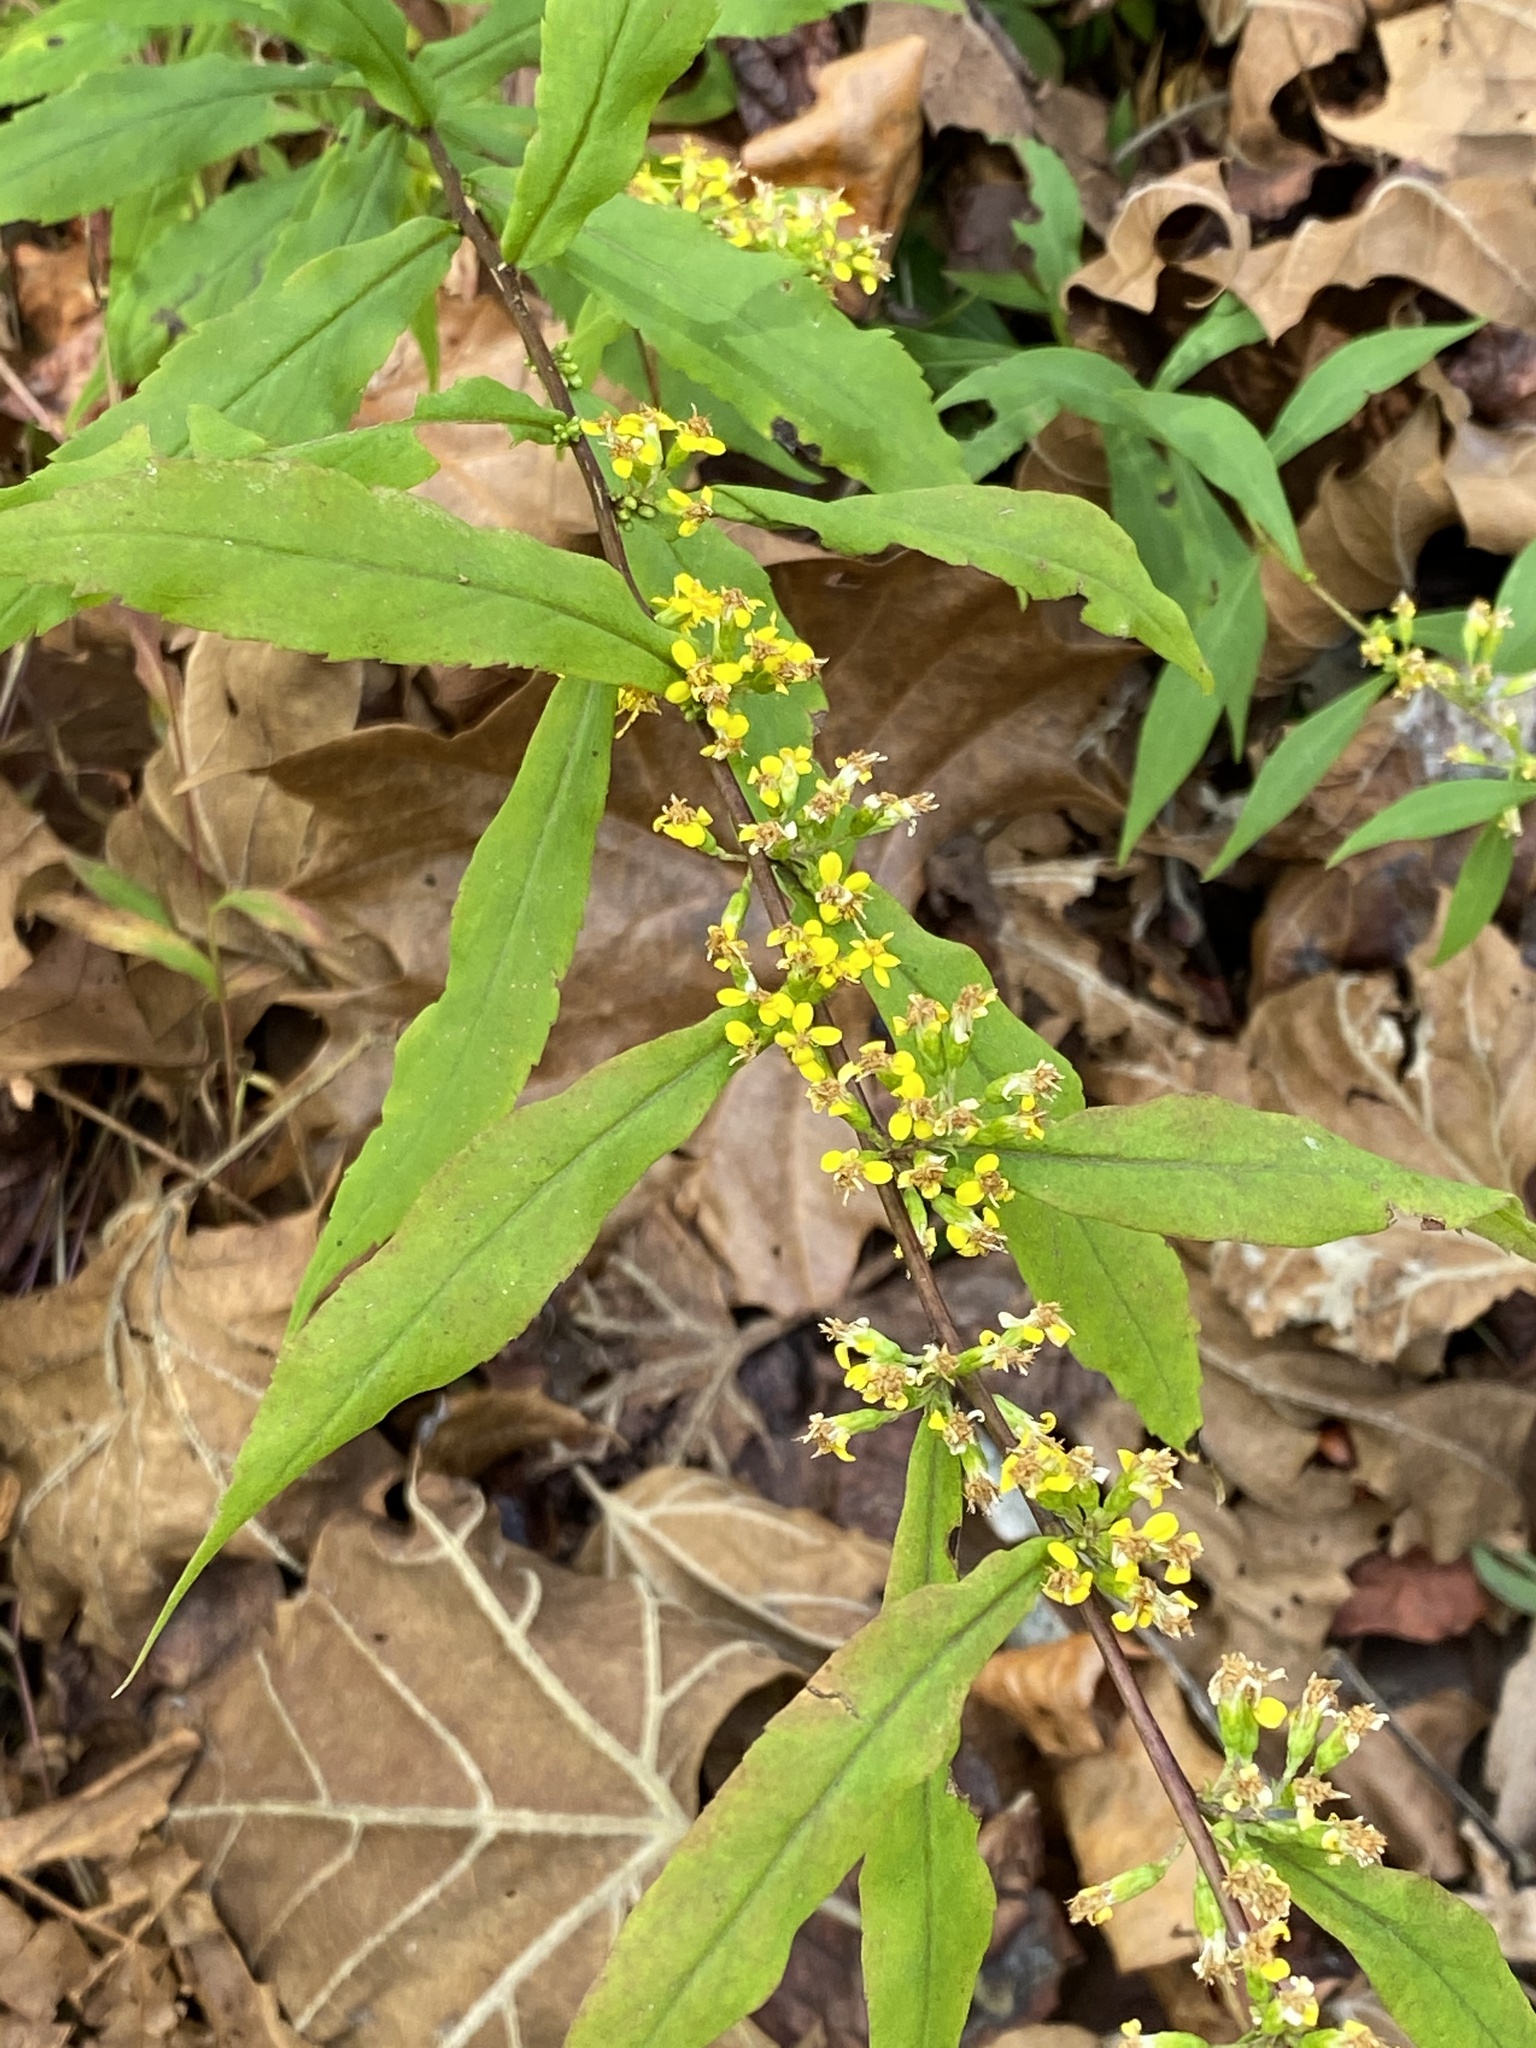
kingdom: Plantae
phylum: Tracheophyta
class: Magnoliopsida
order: Asterales
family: Asteraceae
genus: Solidago
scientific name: Solidago caesia
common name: Woodland goldenrod
